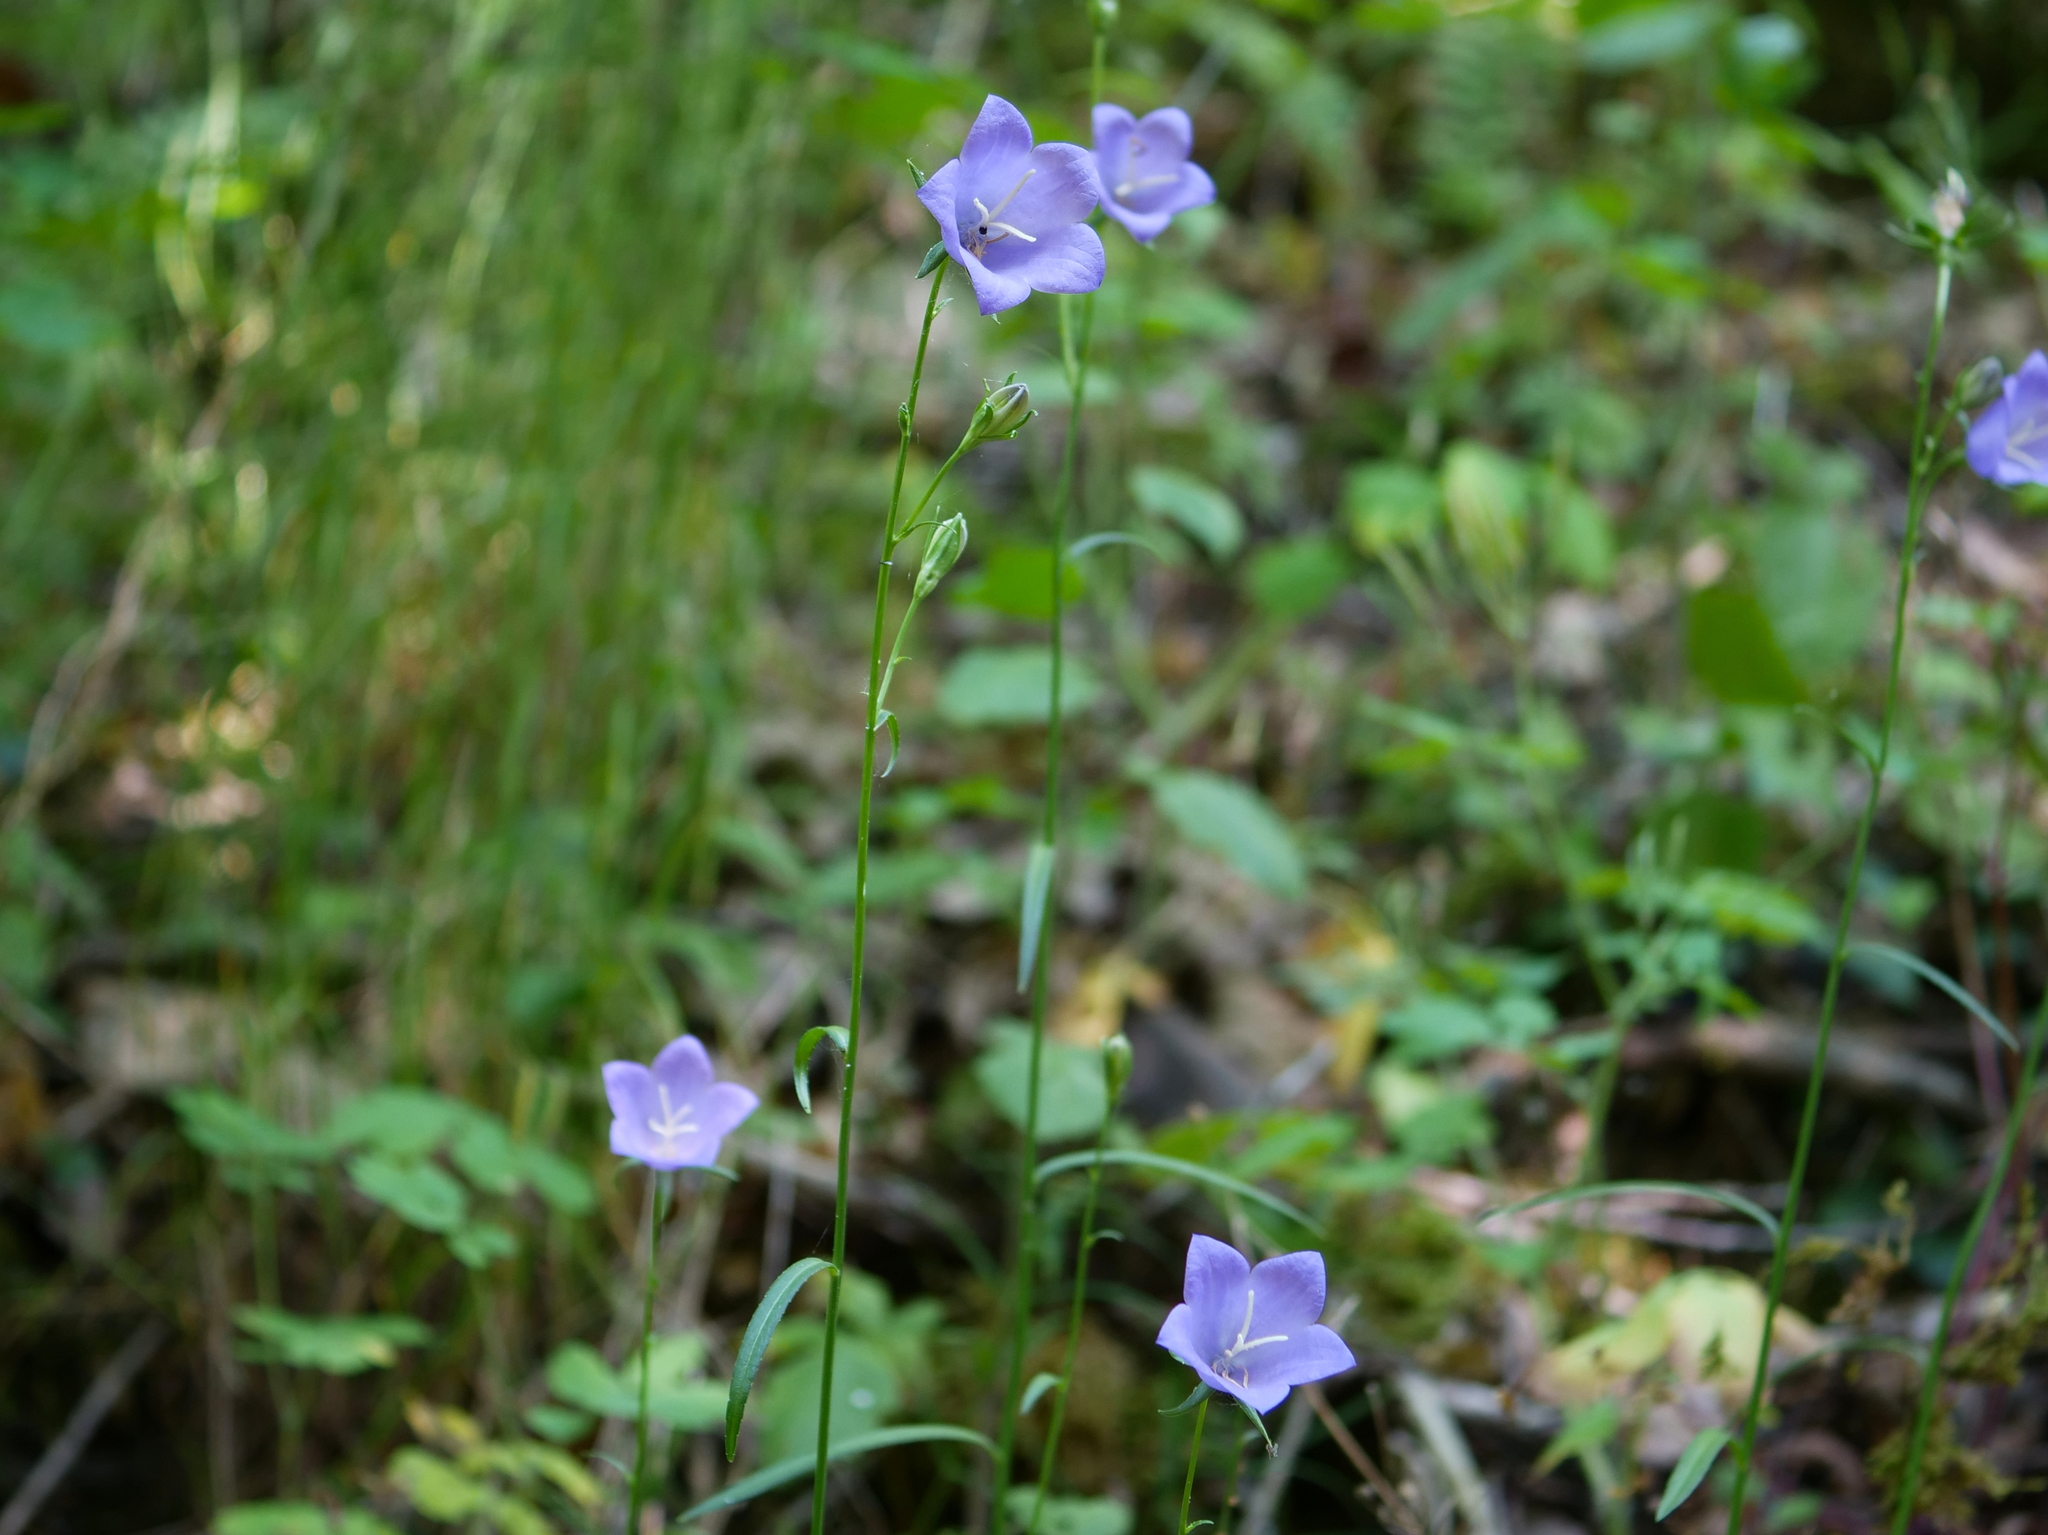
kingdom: Plantae
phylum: Tracheophyta
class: Magnoliopsida
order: Asterales
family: Campanulaceae
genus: Campanula
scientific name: Campanula persicifolia
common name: Peach-leaved bellflower
